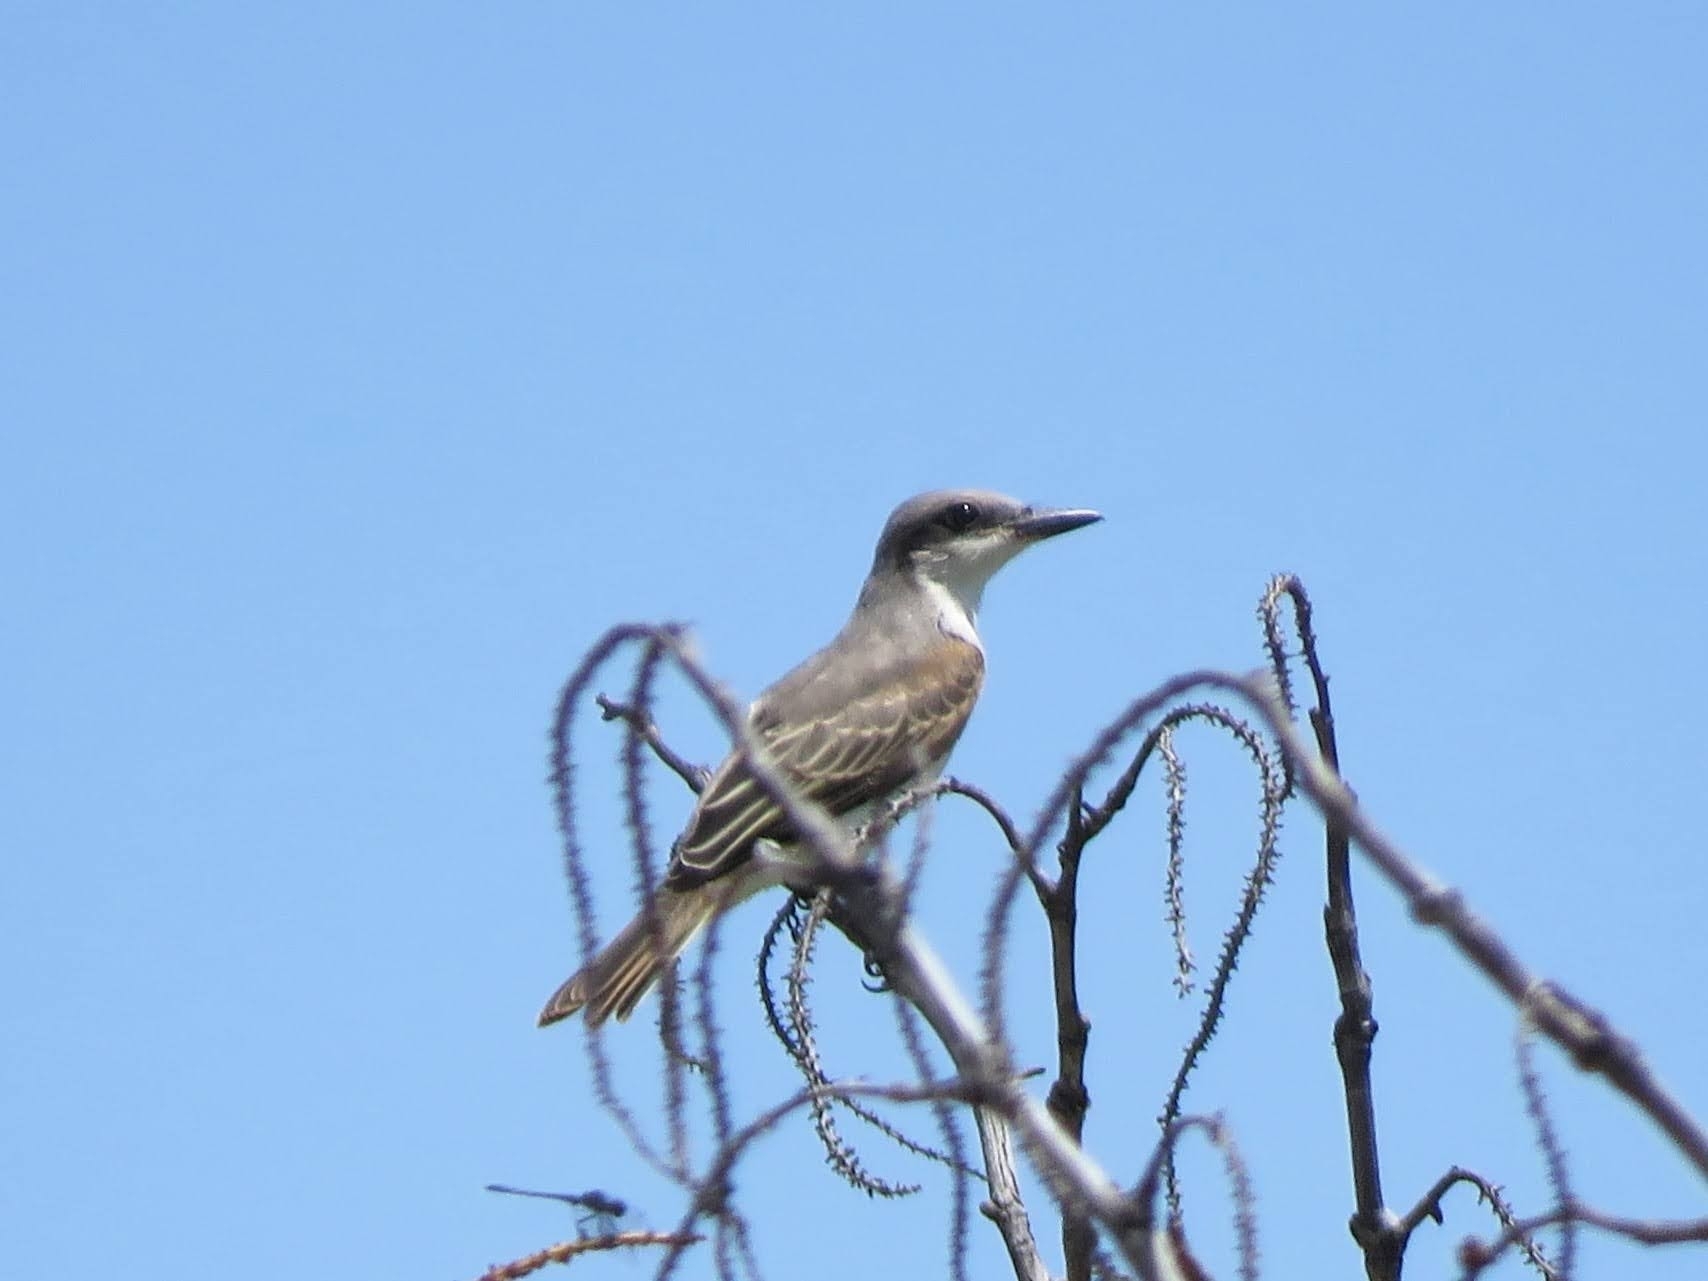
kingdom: Animalia
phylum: Chordata
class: Aves
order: Passeriformes
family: Tyrannidae
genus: Tyrannus
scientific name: Tyrannus dominicensis
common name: Gray kingbird
